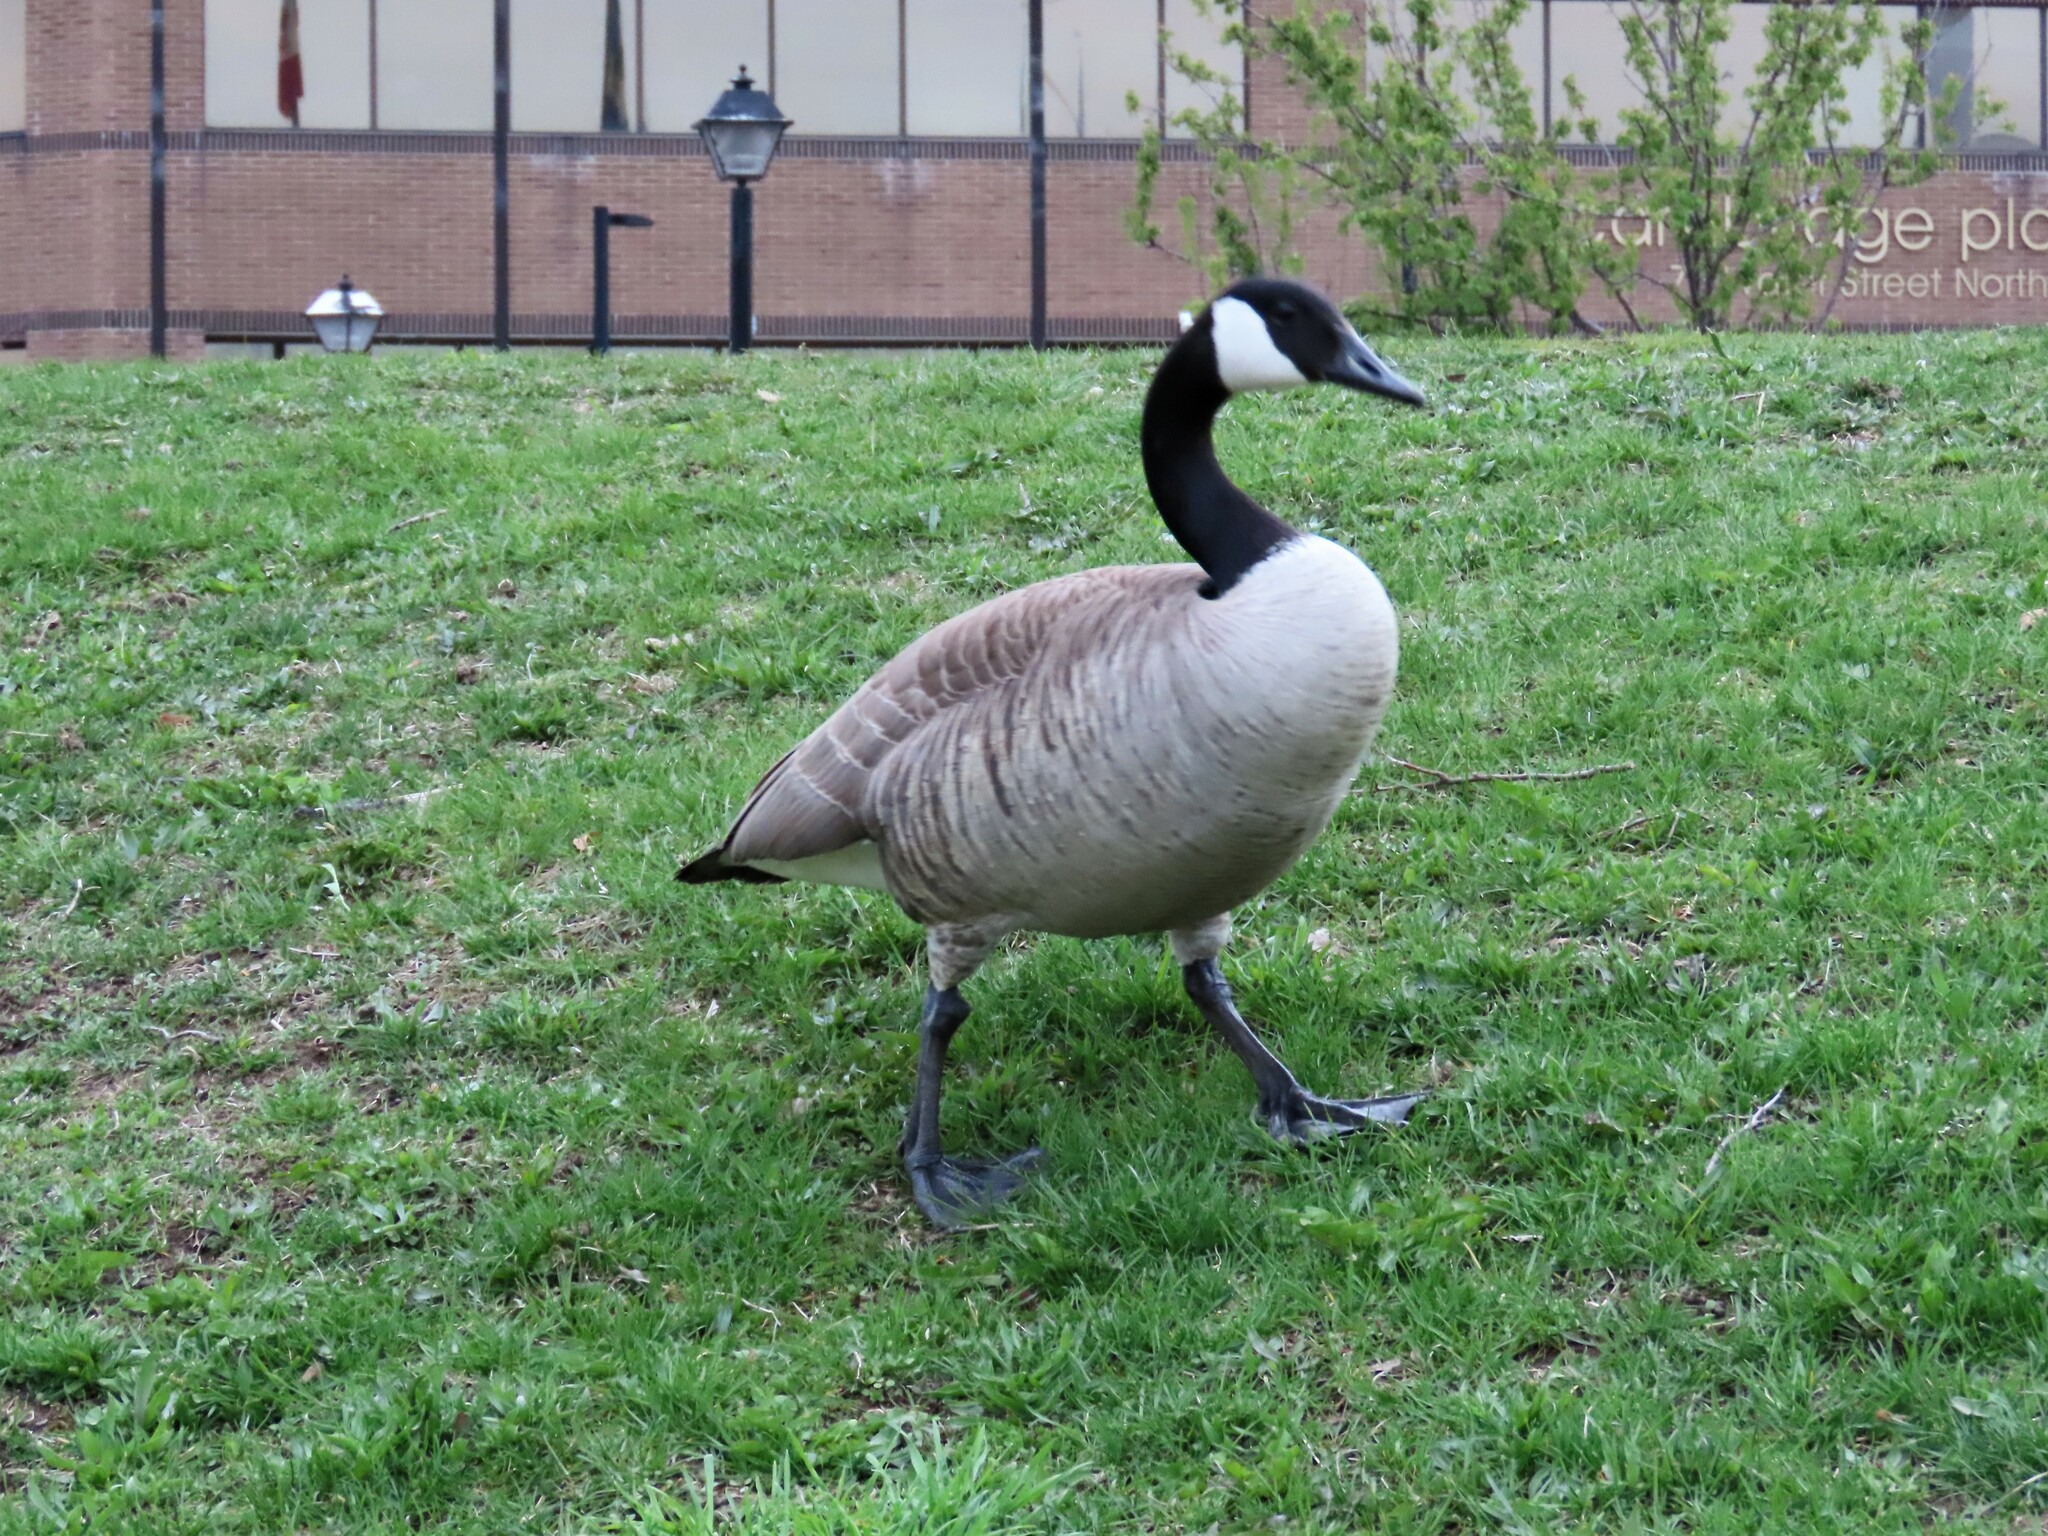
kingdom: Animalia
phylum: Chordata
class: Aves
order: Anseriformes
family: Anatidae
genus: Branta
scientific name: Branta canadensis
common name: Canada goose
